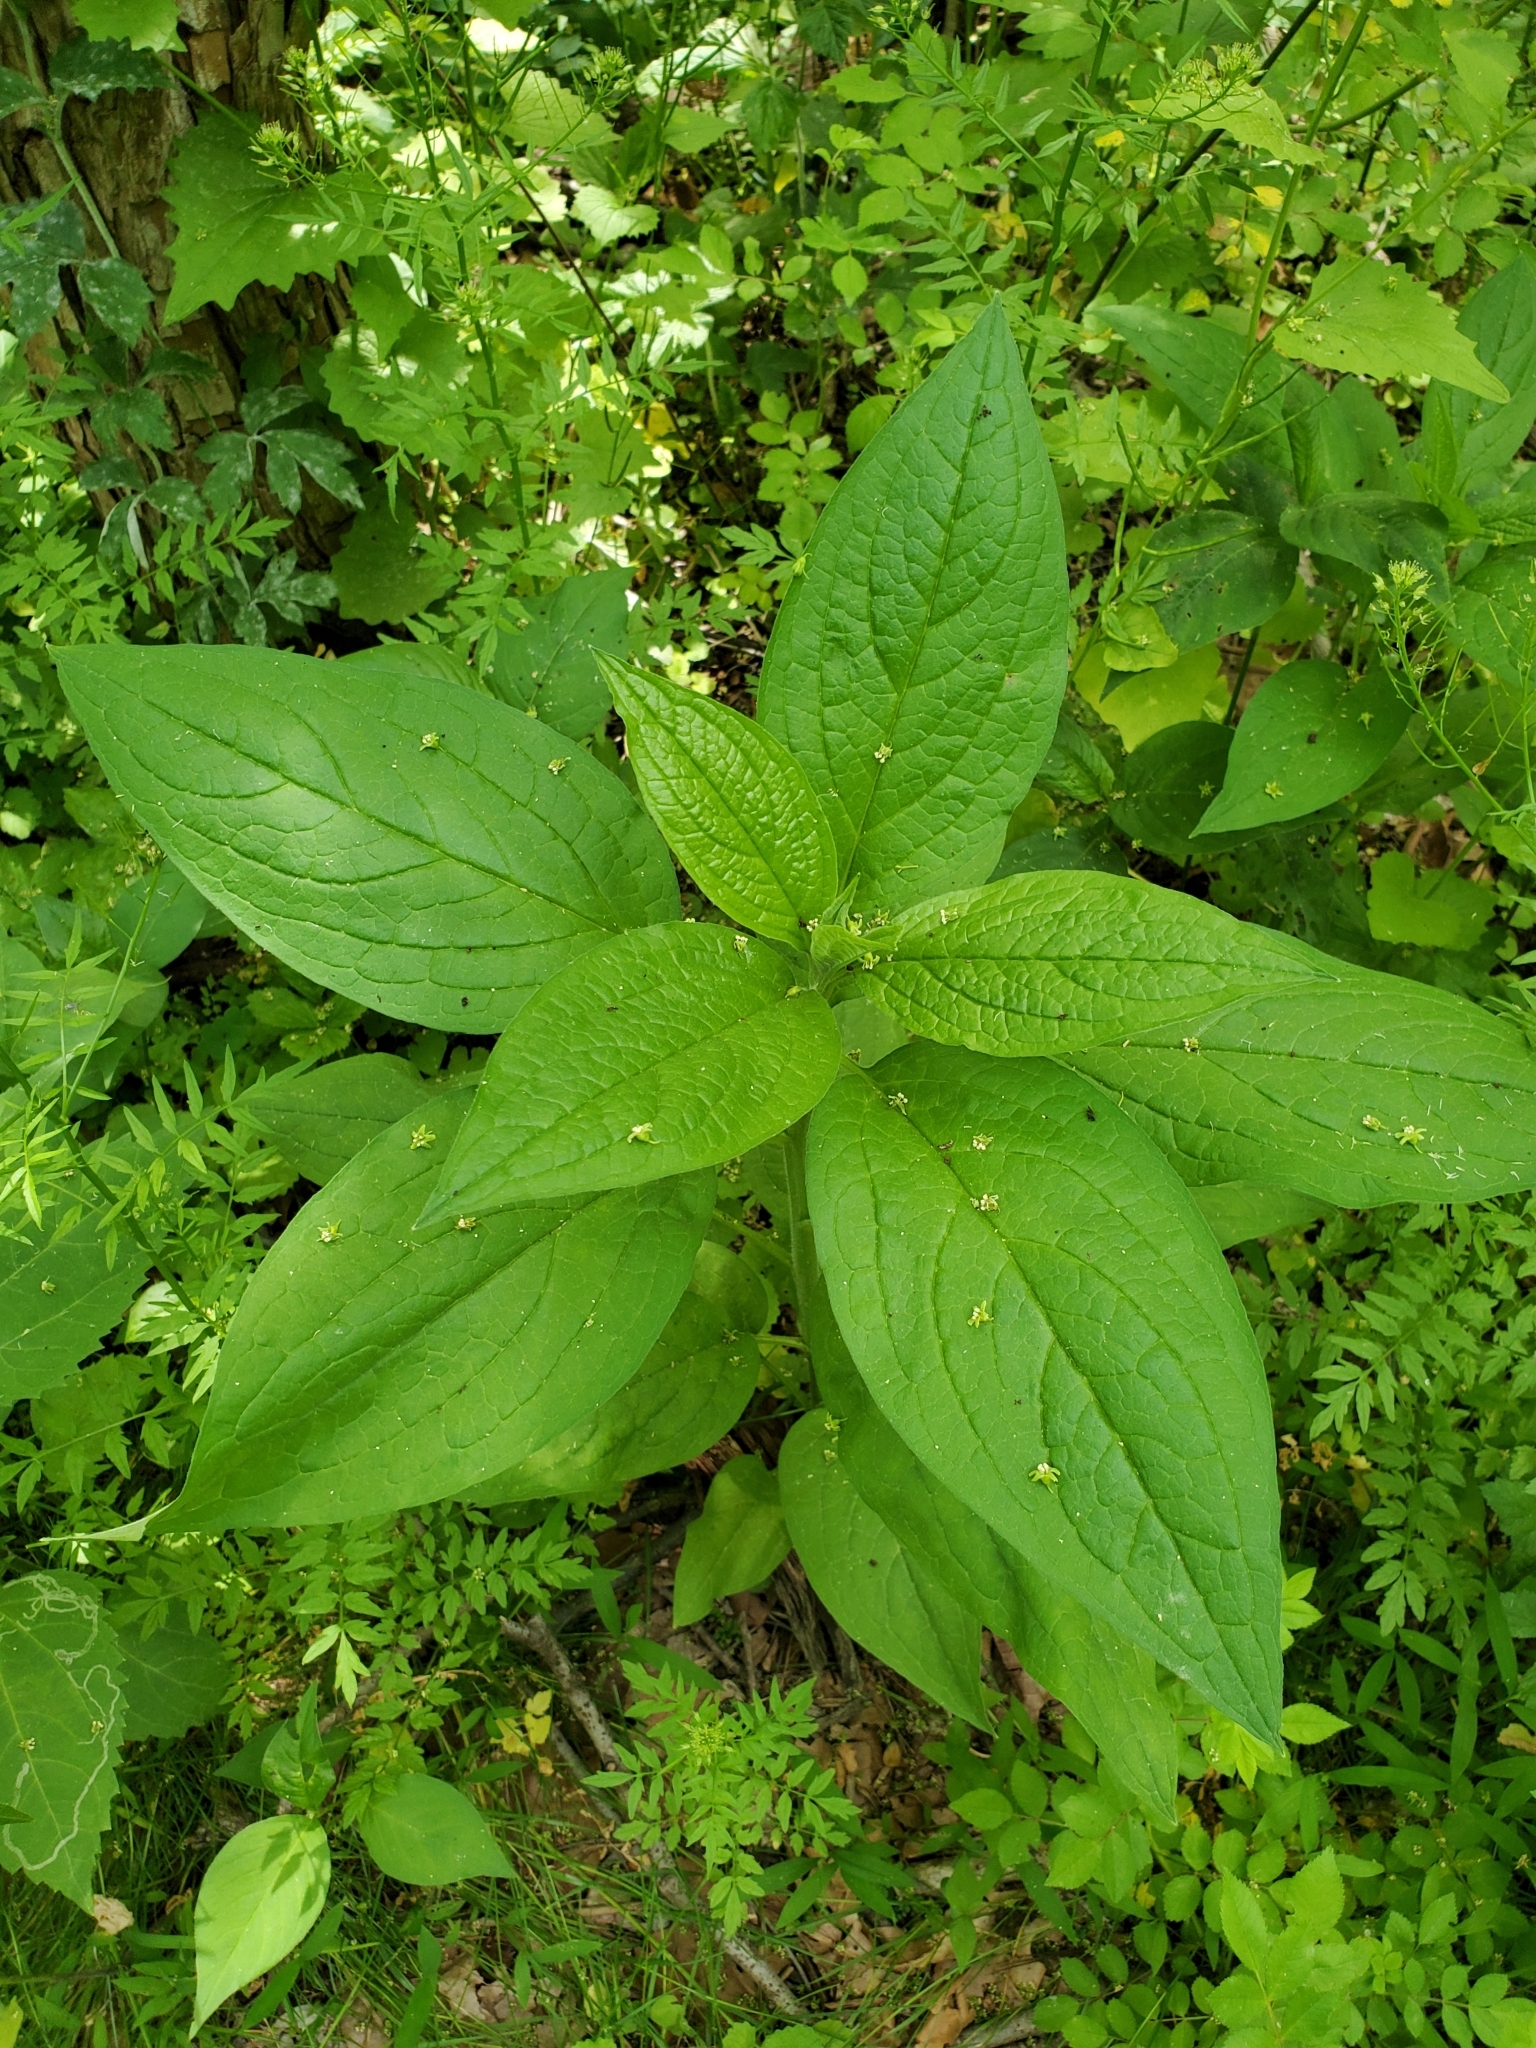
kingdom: Plantae
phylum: Tracheophyta
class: Magnoliopsida
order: Boraginales
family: Boraginaceae
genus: Hackelia
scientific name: Hackelia virginiana
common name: Beggar's-lice
